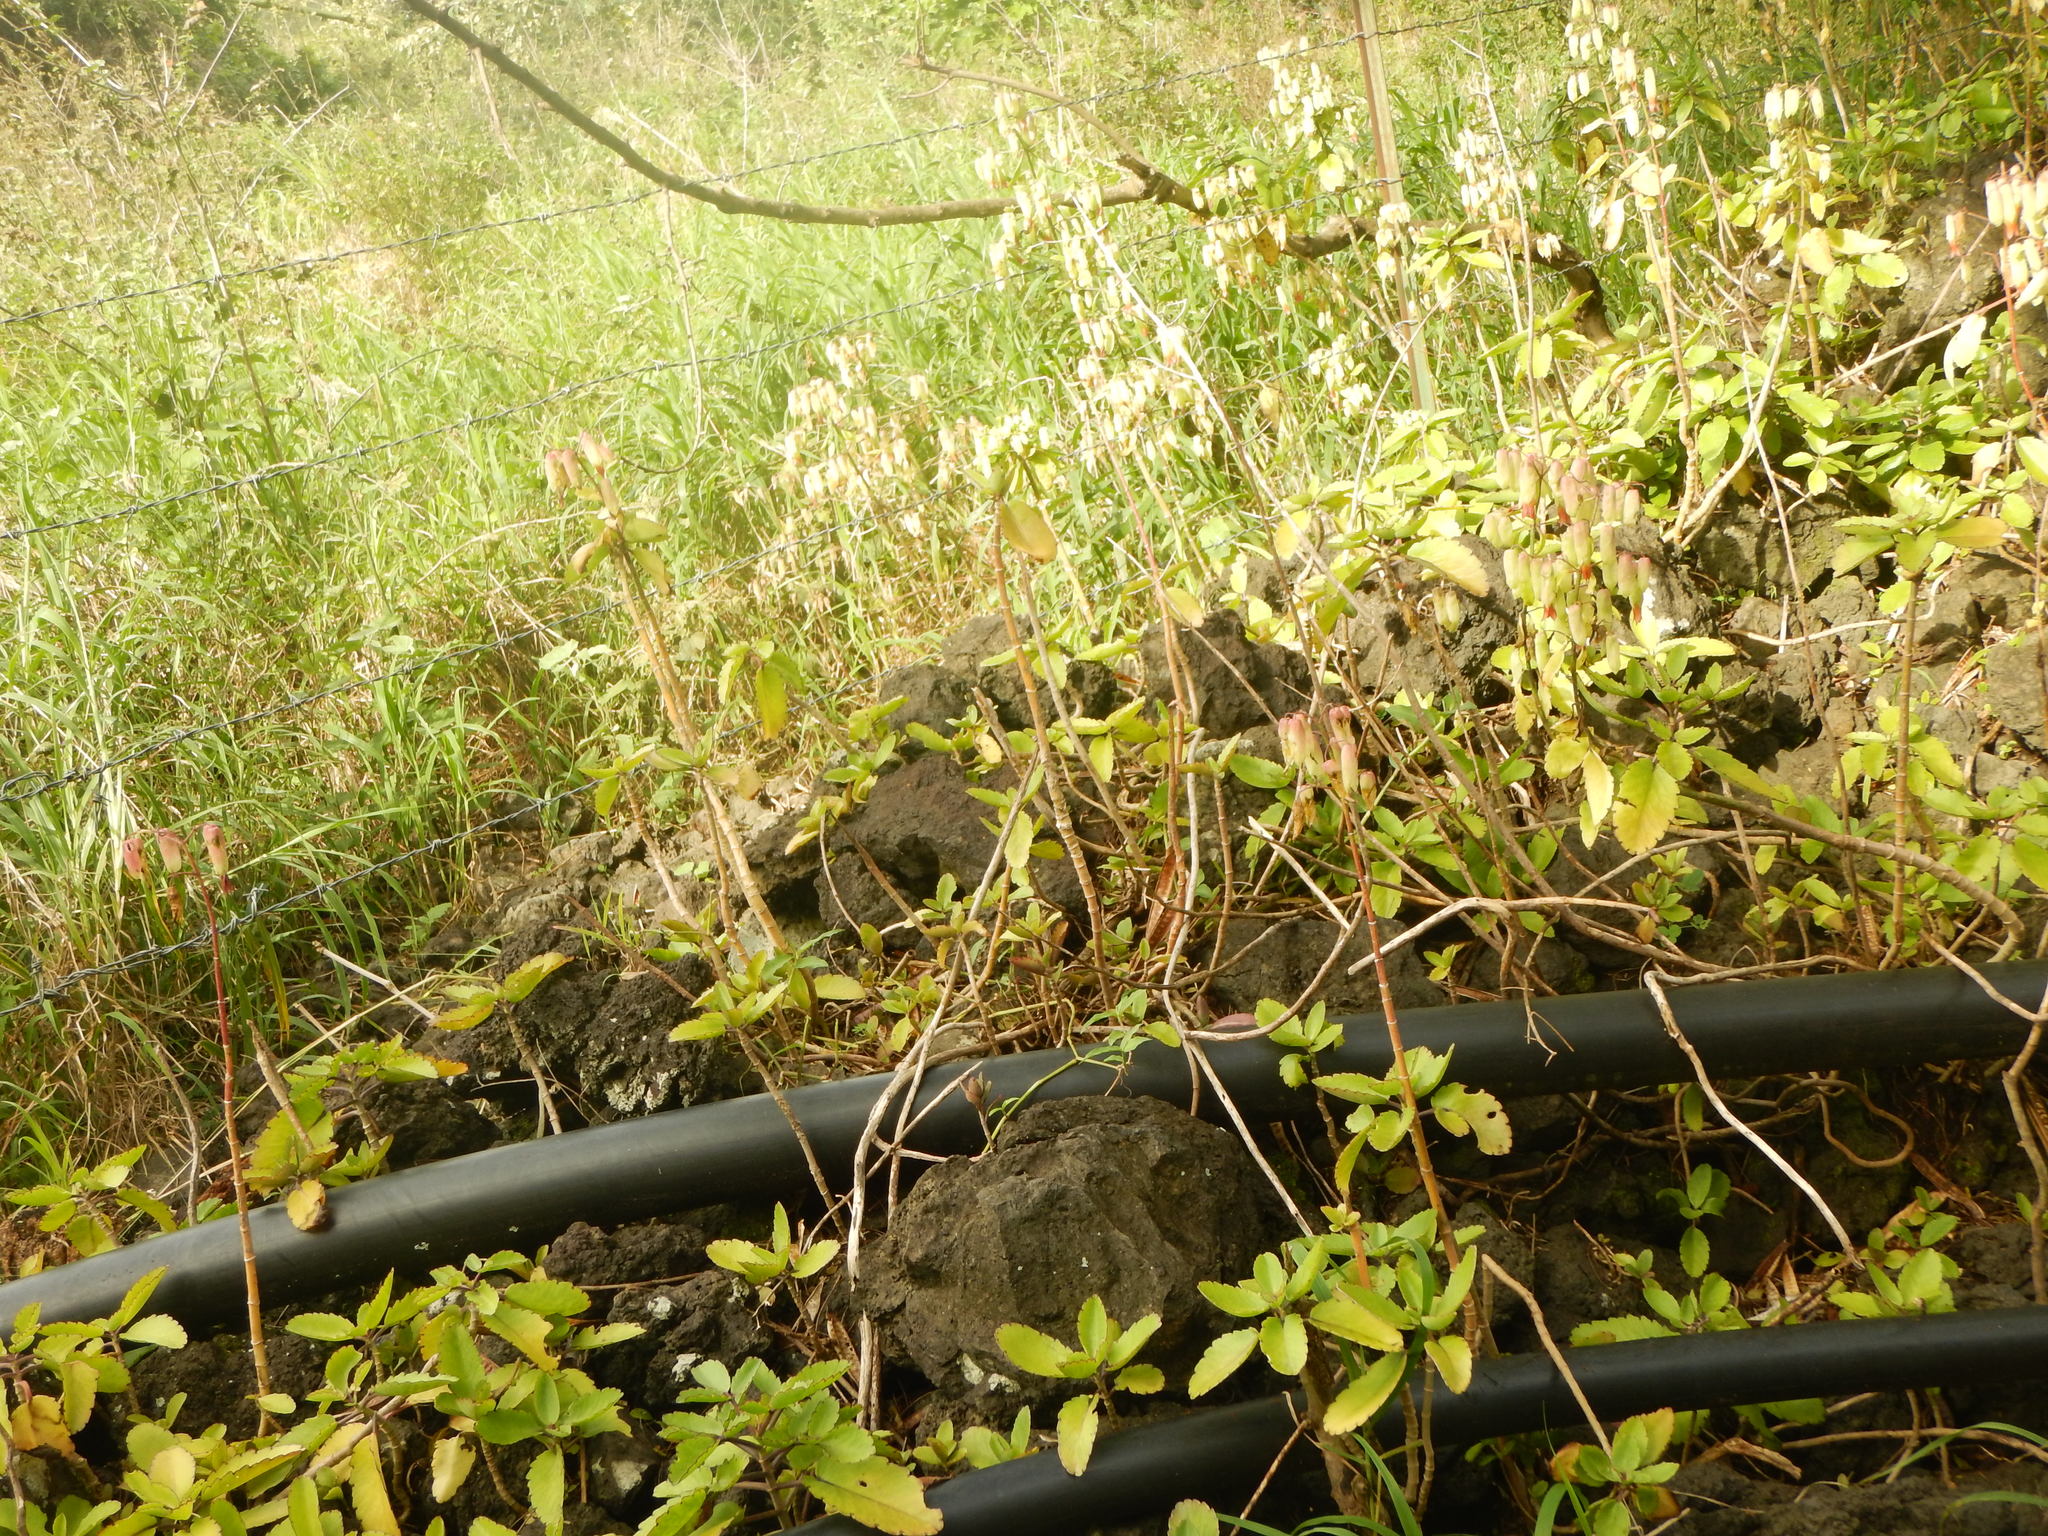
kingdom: Plantae
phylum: Tracheophyta
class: Magnoliopsida
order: Saxifragales
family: Crassulaceae
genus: Kalanchoe
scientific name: Kalanchoe pinnata
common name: Cathedral bells
